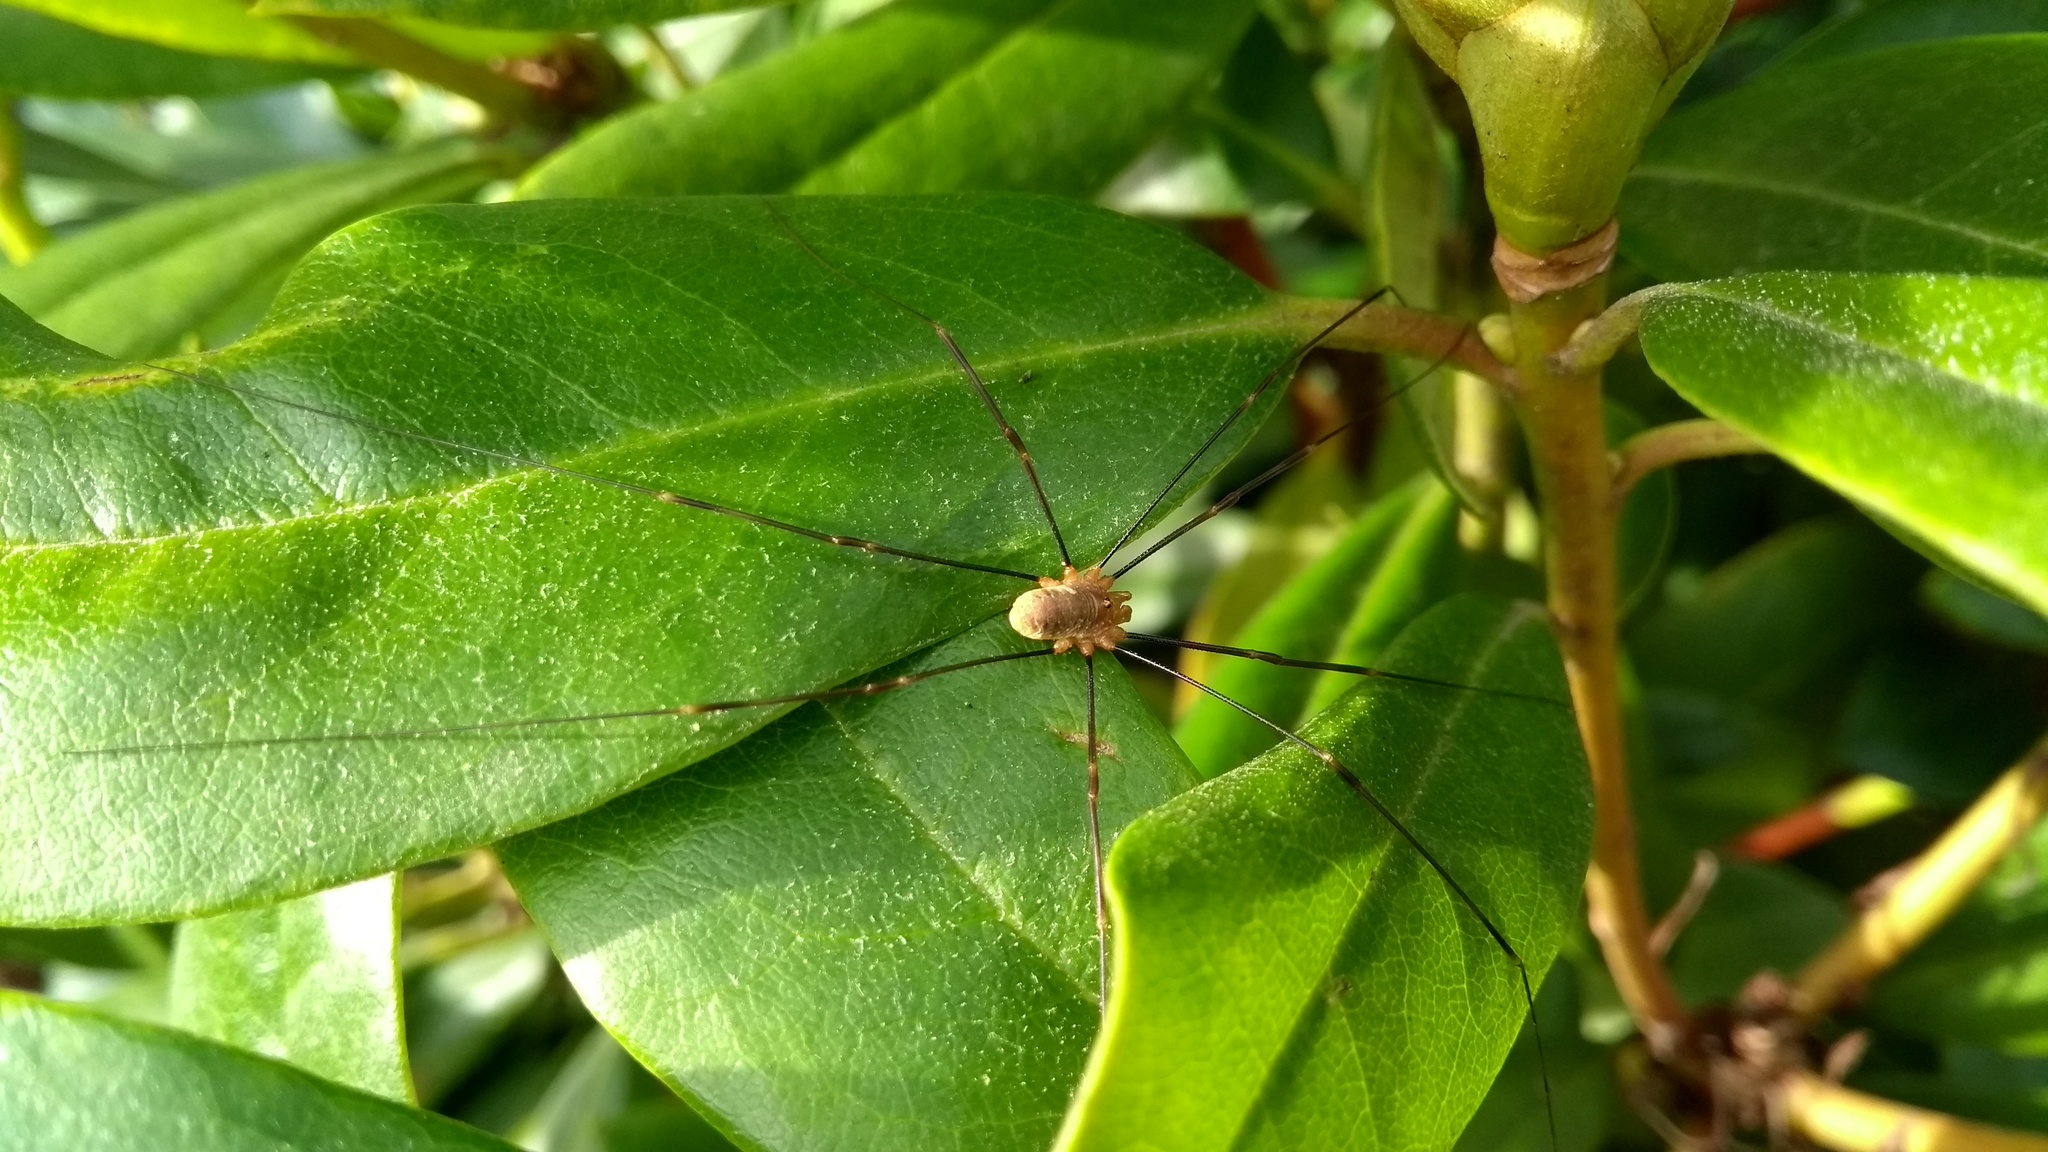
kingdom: Animalia
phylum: Arthropoda
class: Arachnida
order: Opiliones
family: Phalangiidae
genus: Opilio
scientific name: Opilio canestrinii
